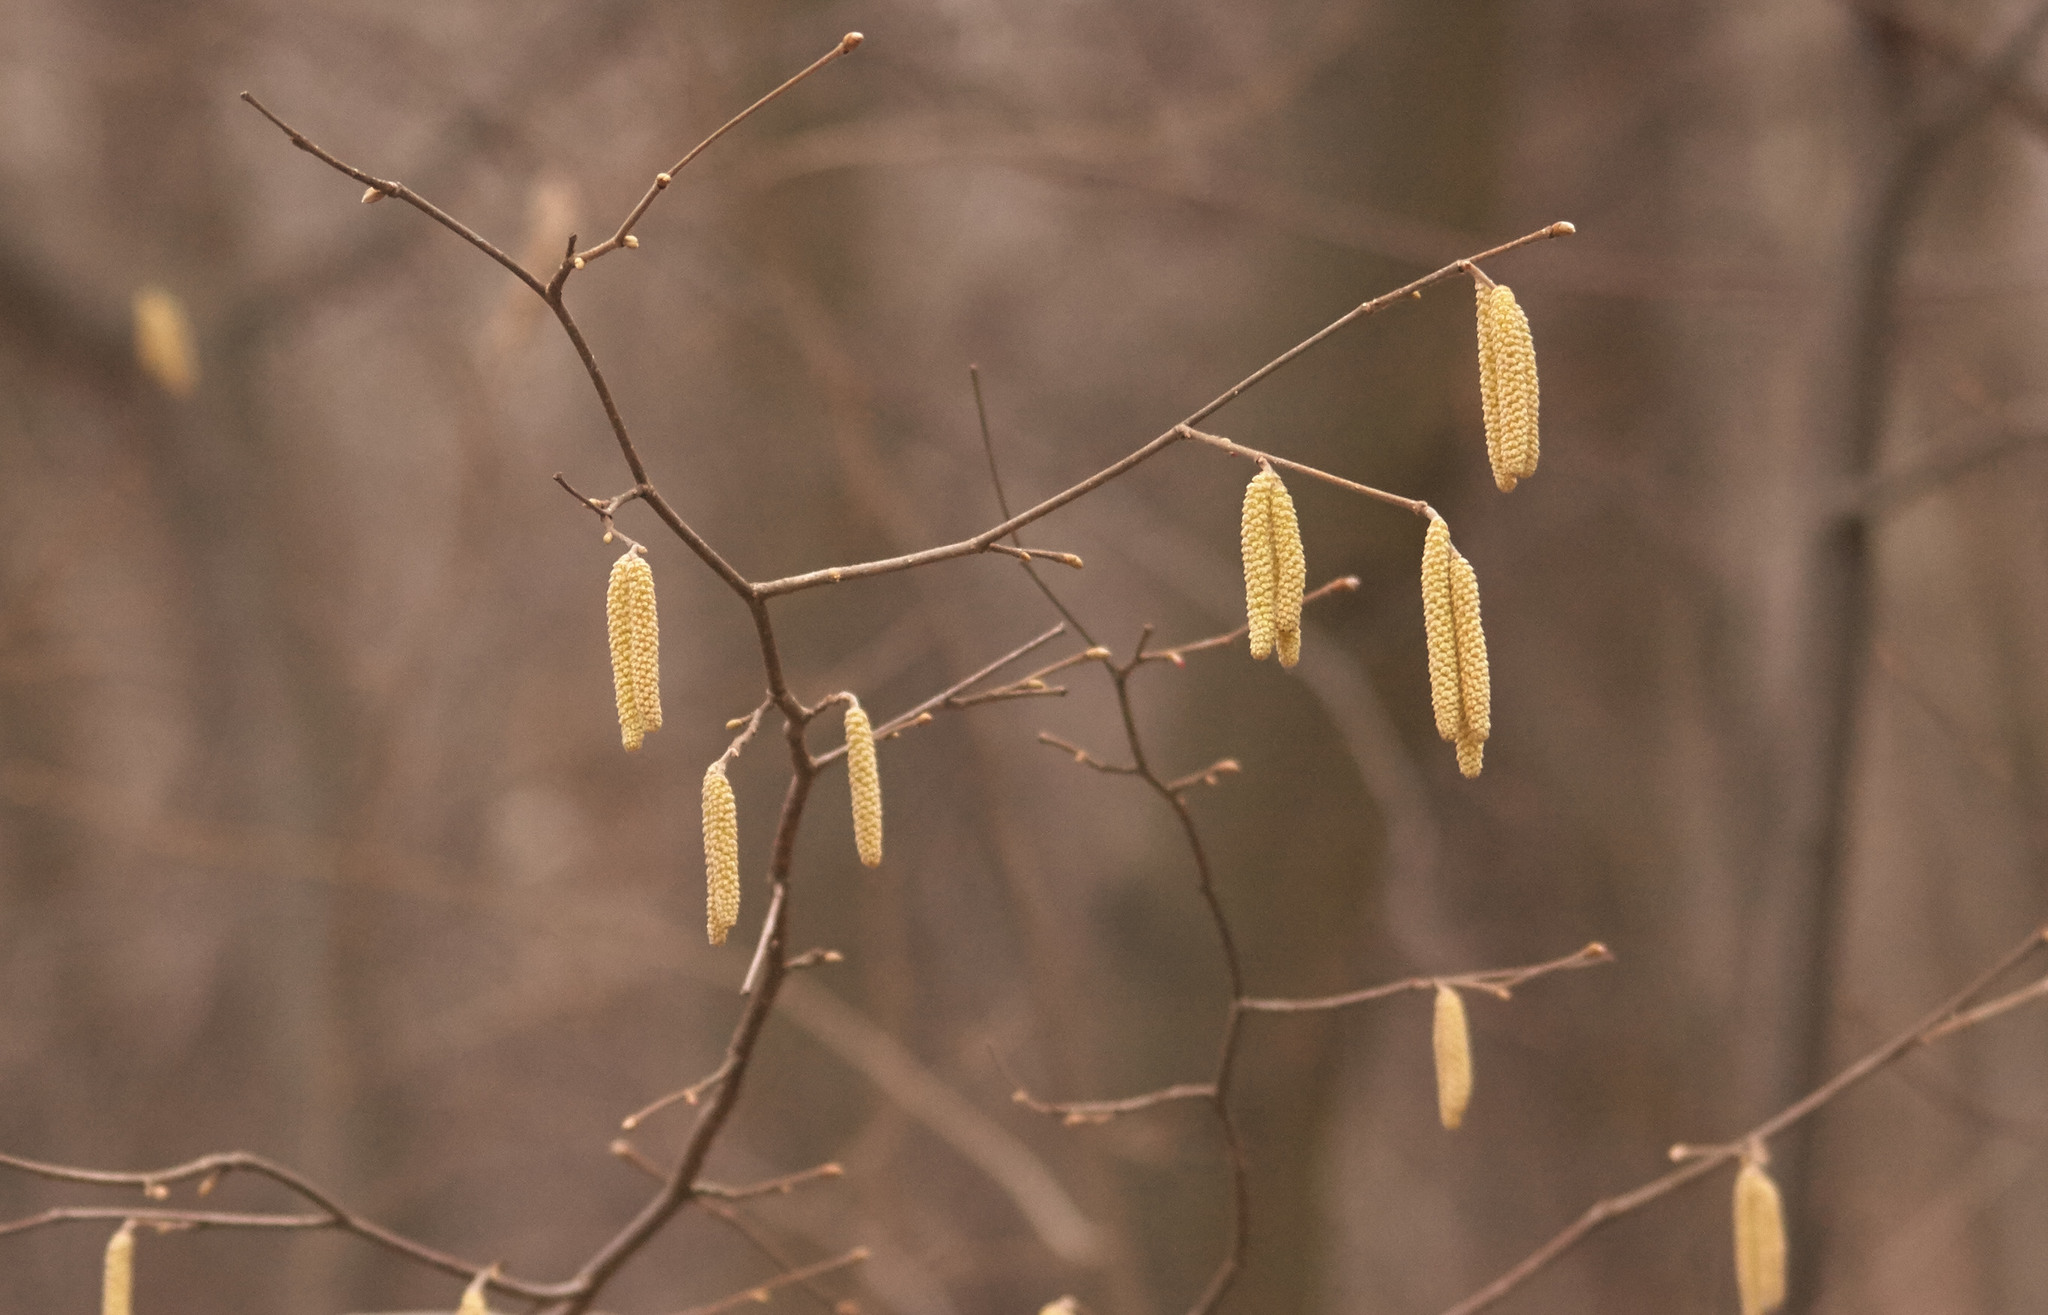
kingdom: Plantae
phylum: Tracheophyta
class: Magnoliopsida
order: Fagales
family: Betulaceae
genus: Corylus
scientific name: Corylus avellana
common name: European hazel
